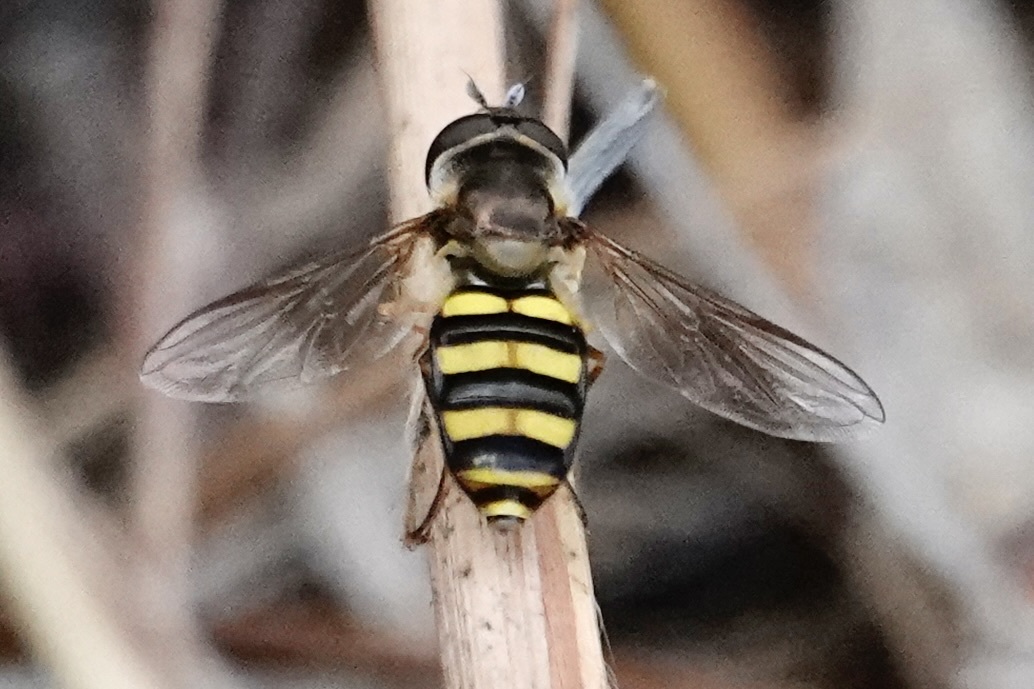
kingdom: Animalia
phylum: Arthropoda
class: Insecta
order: Diptera
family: Syrphidae
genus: Eupeodes
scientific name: Eupeodes
